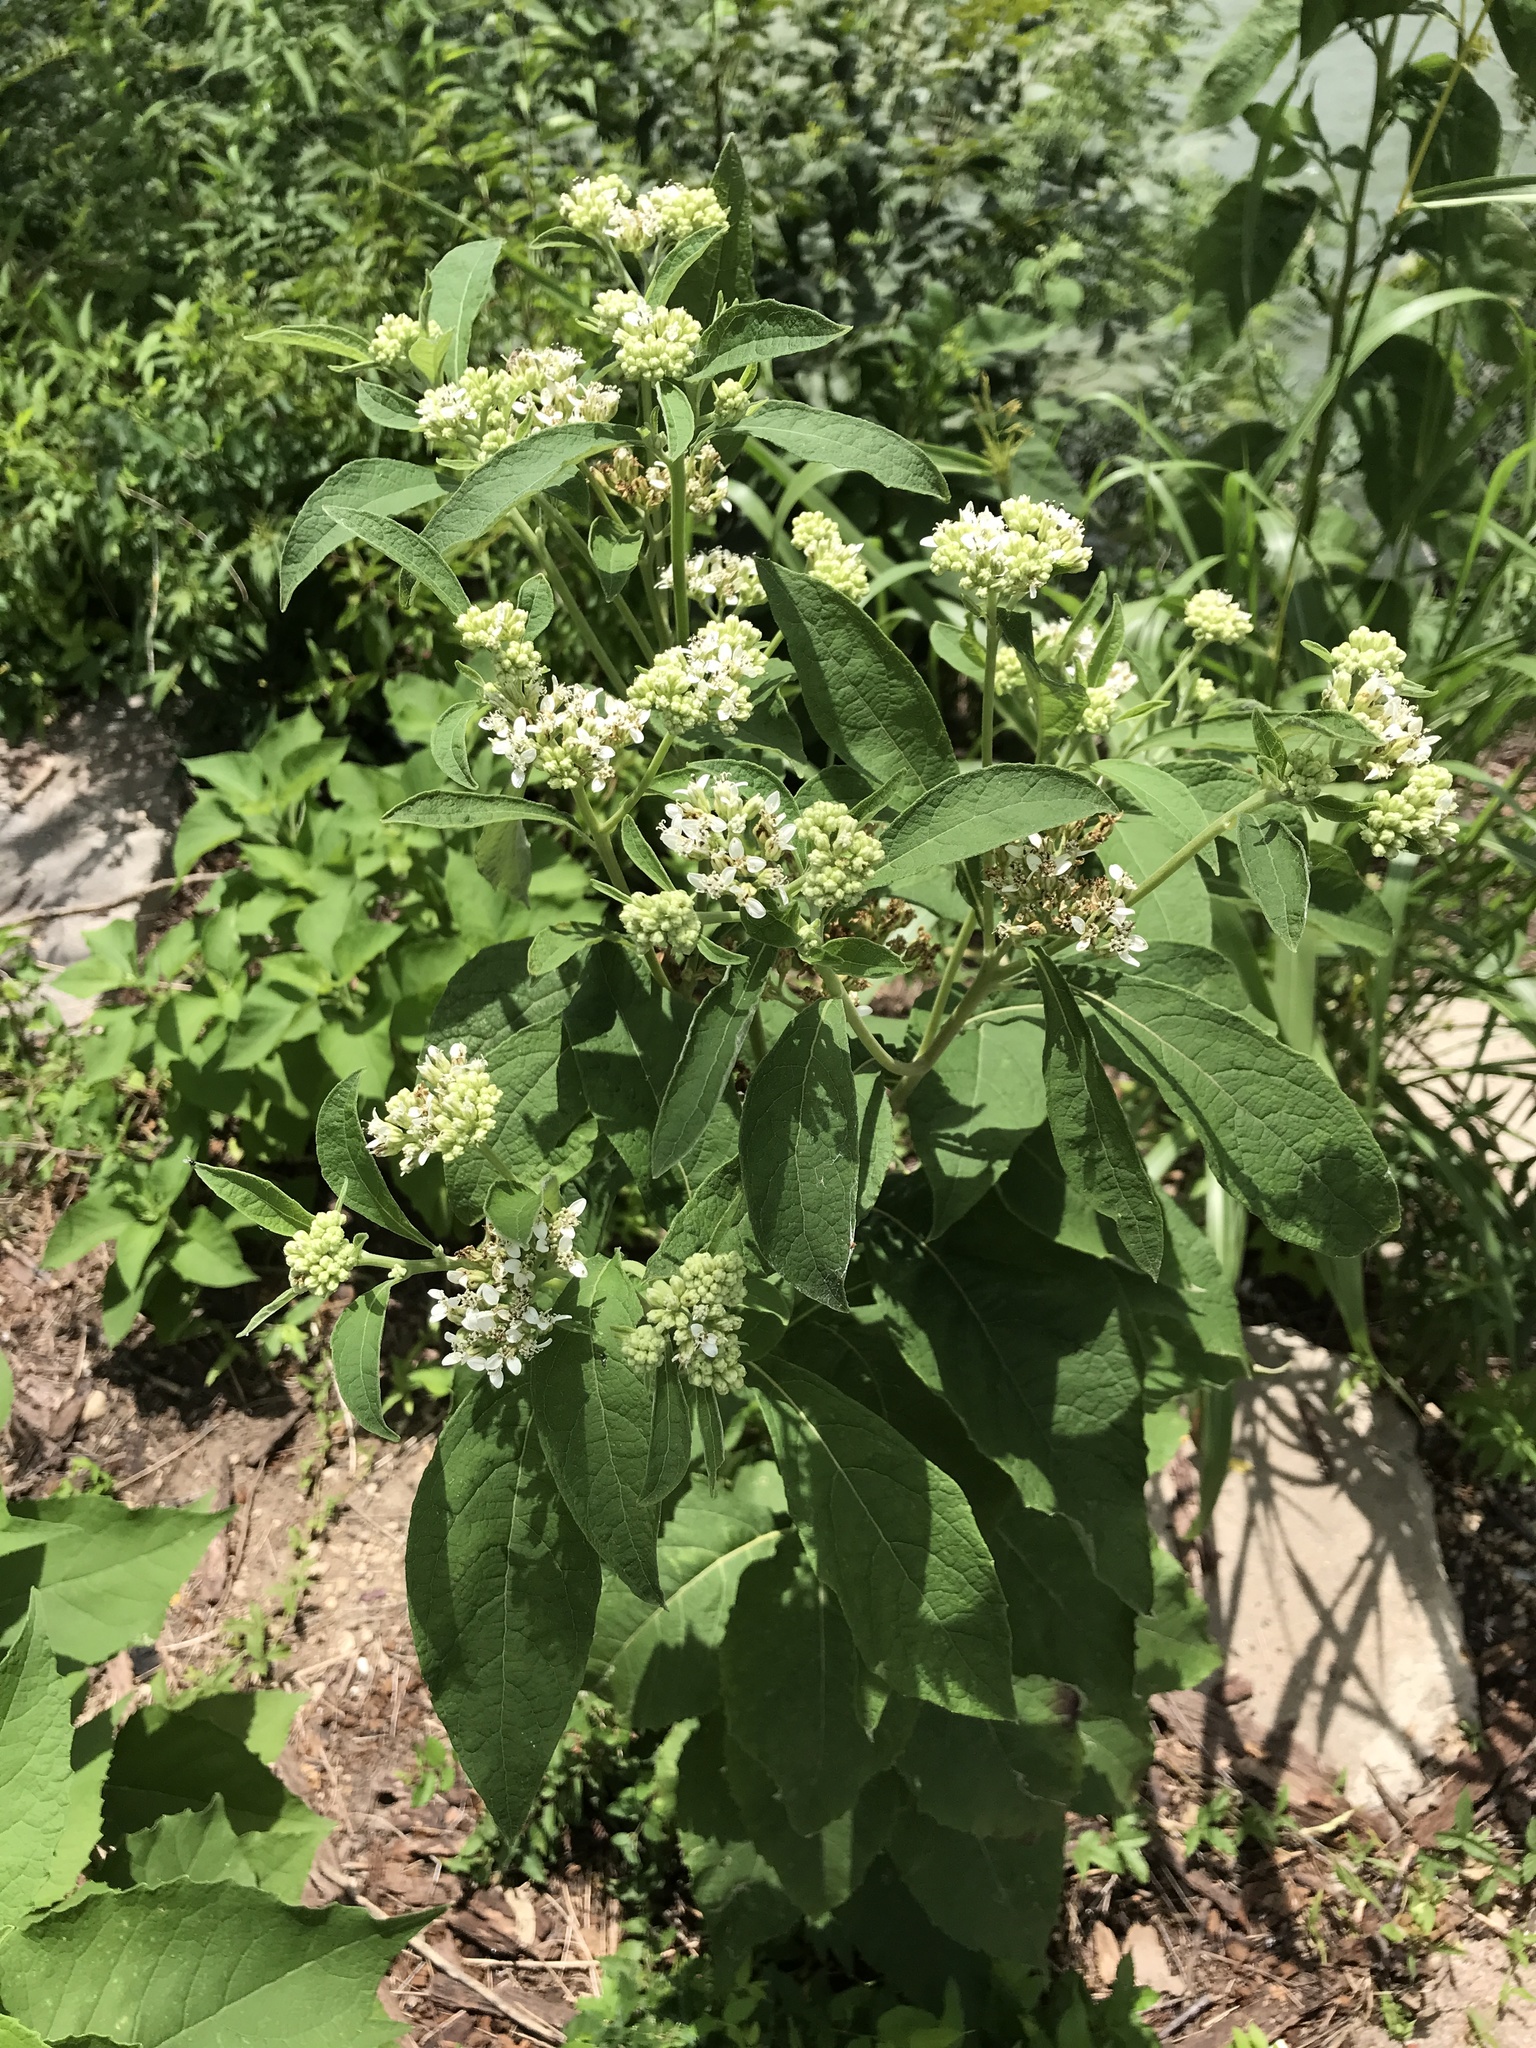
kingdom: Plantae
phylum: Tracheophyta
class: Magnoliopsida
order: Asterales
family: Asteraceae
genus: Verbesina
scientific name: Verbesina virginica
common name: Frostweed
